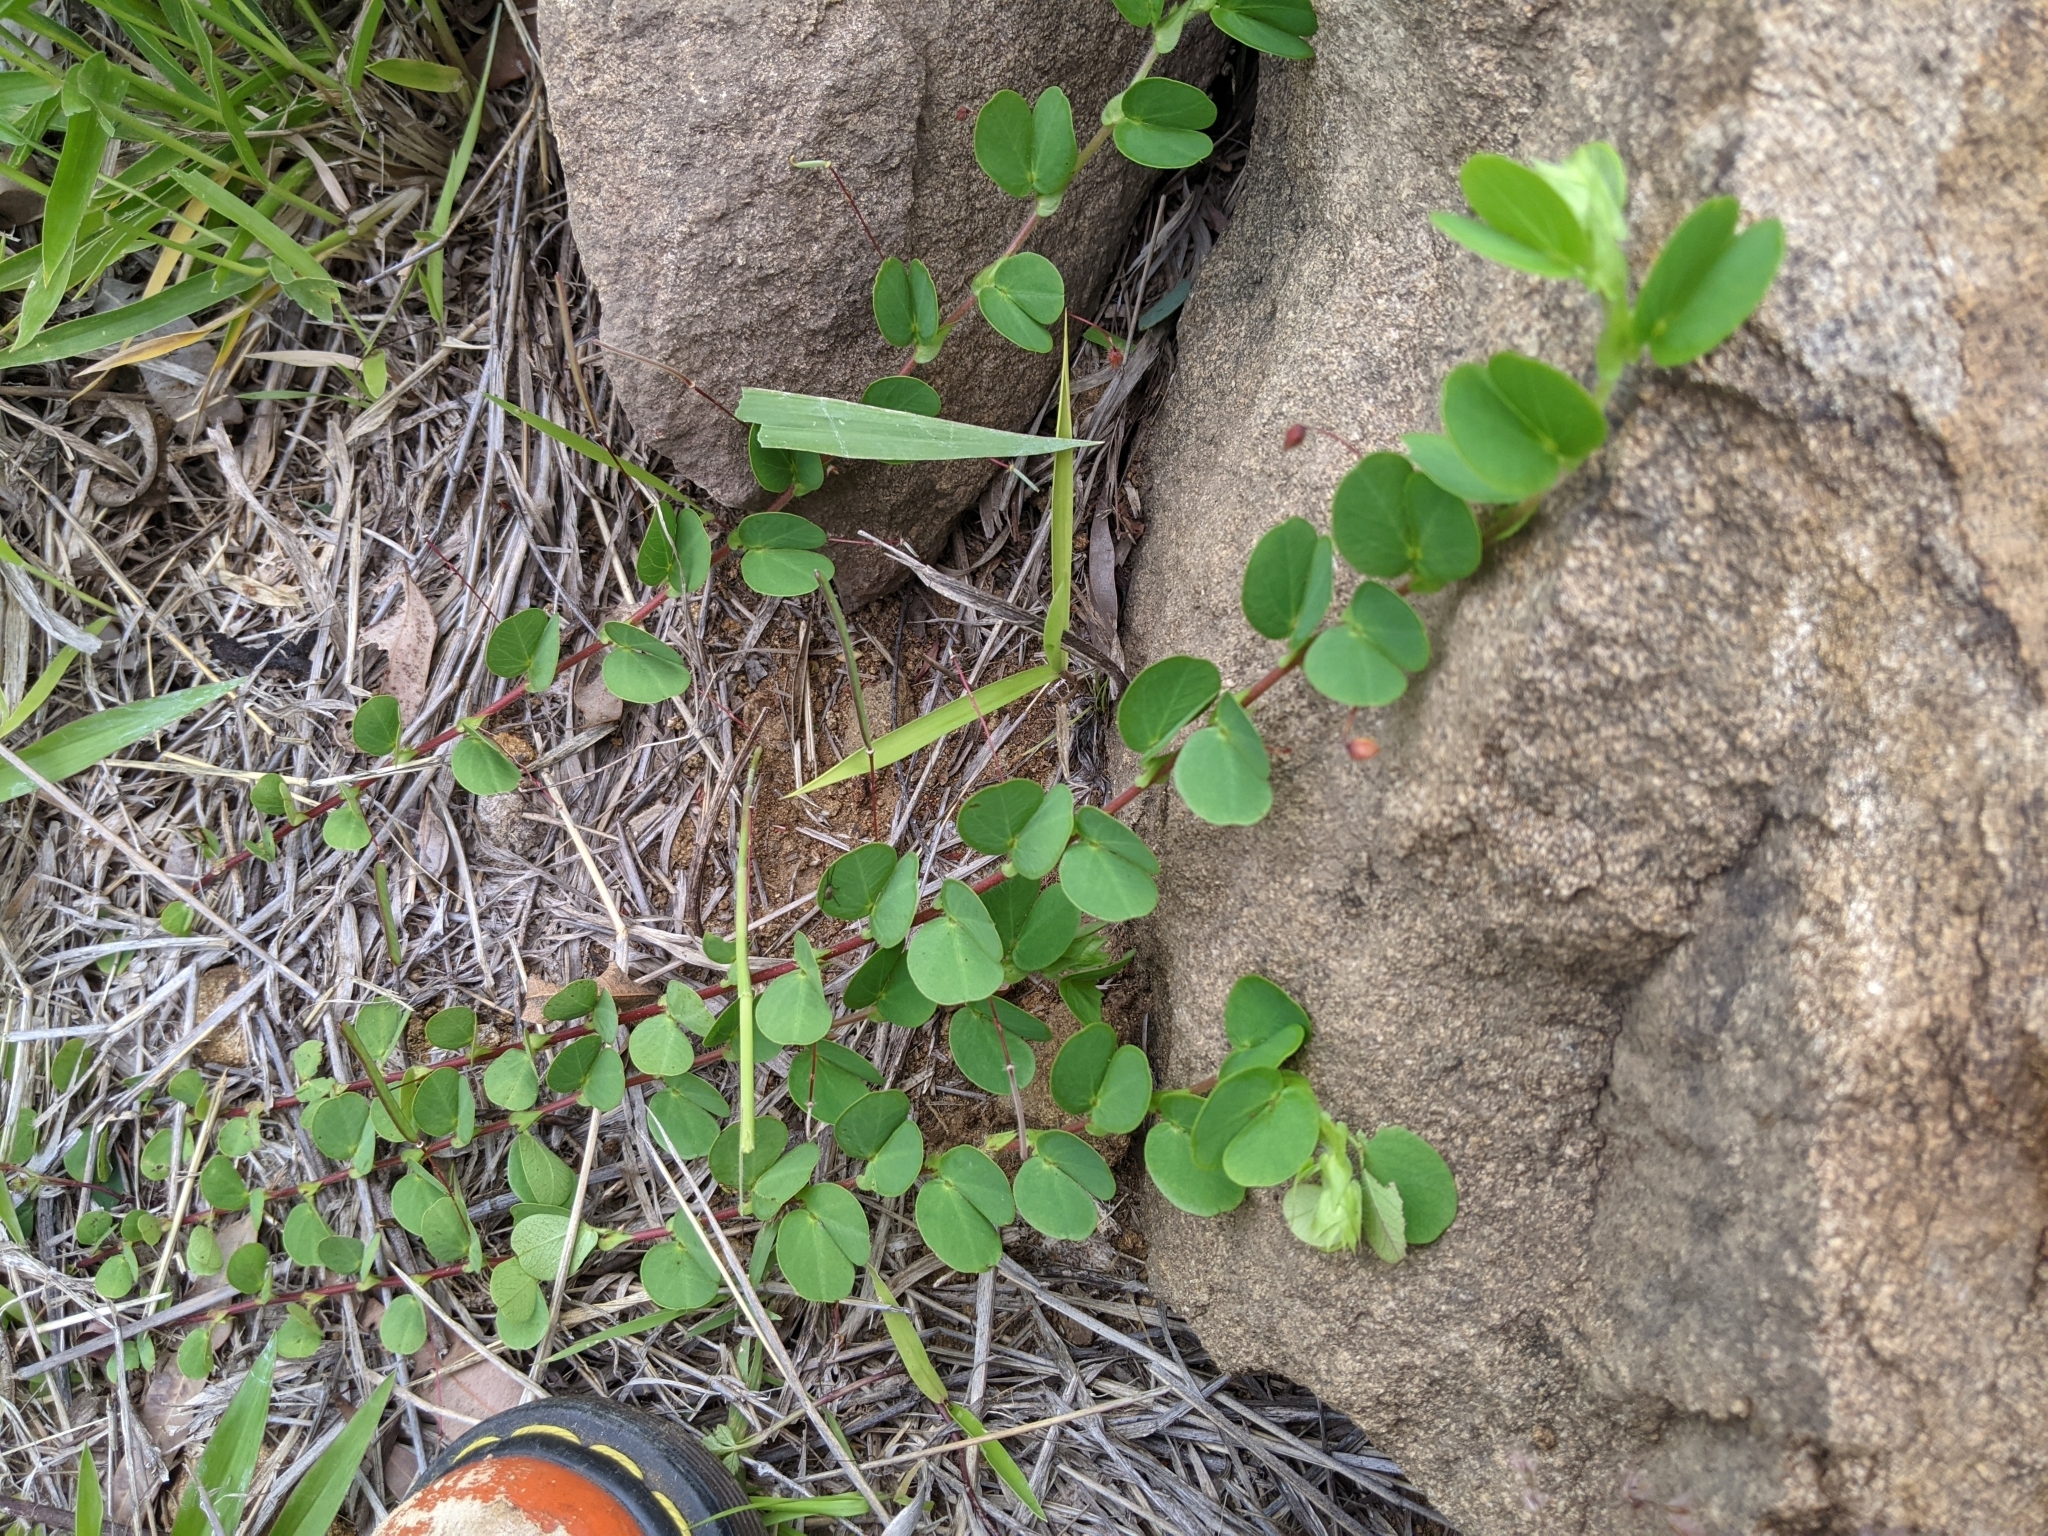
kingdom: Plantae
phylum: Tracheophyta
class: Magnoliopsida
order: Fabales
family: Fabaceae
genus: Chamaecrista
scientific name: Chamaecrista rotundifolia
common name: Round-leaf cassia
